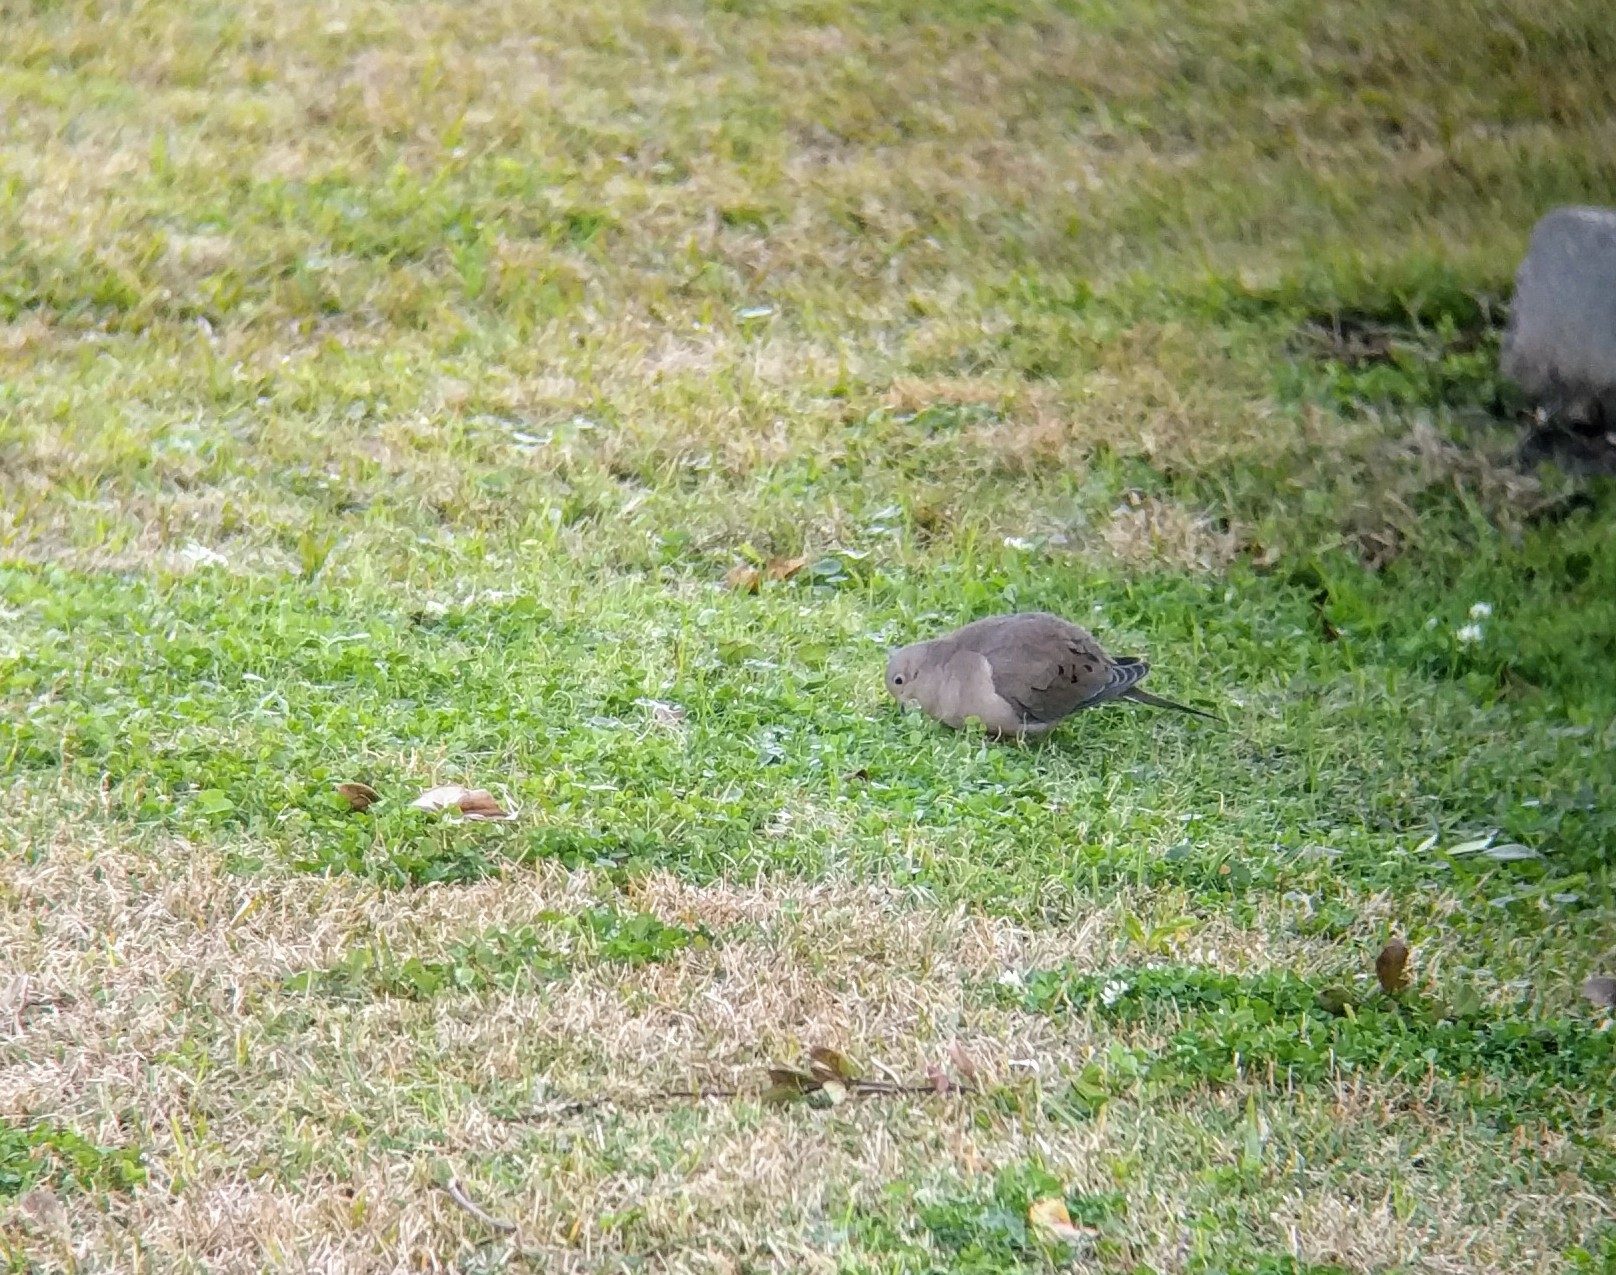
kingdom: Animalia
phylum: Chordata
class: Aves
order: Columbiformes
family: Columbidae
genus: Zenaida
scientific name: Zenaida macroura
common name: Mourning dove
